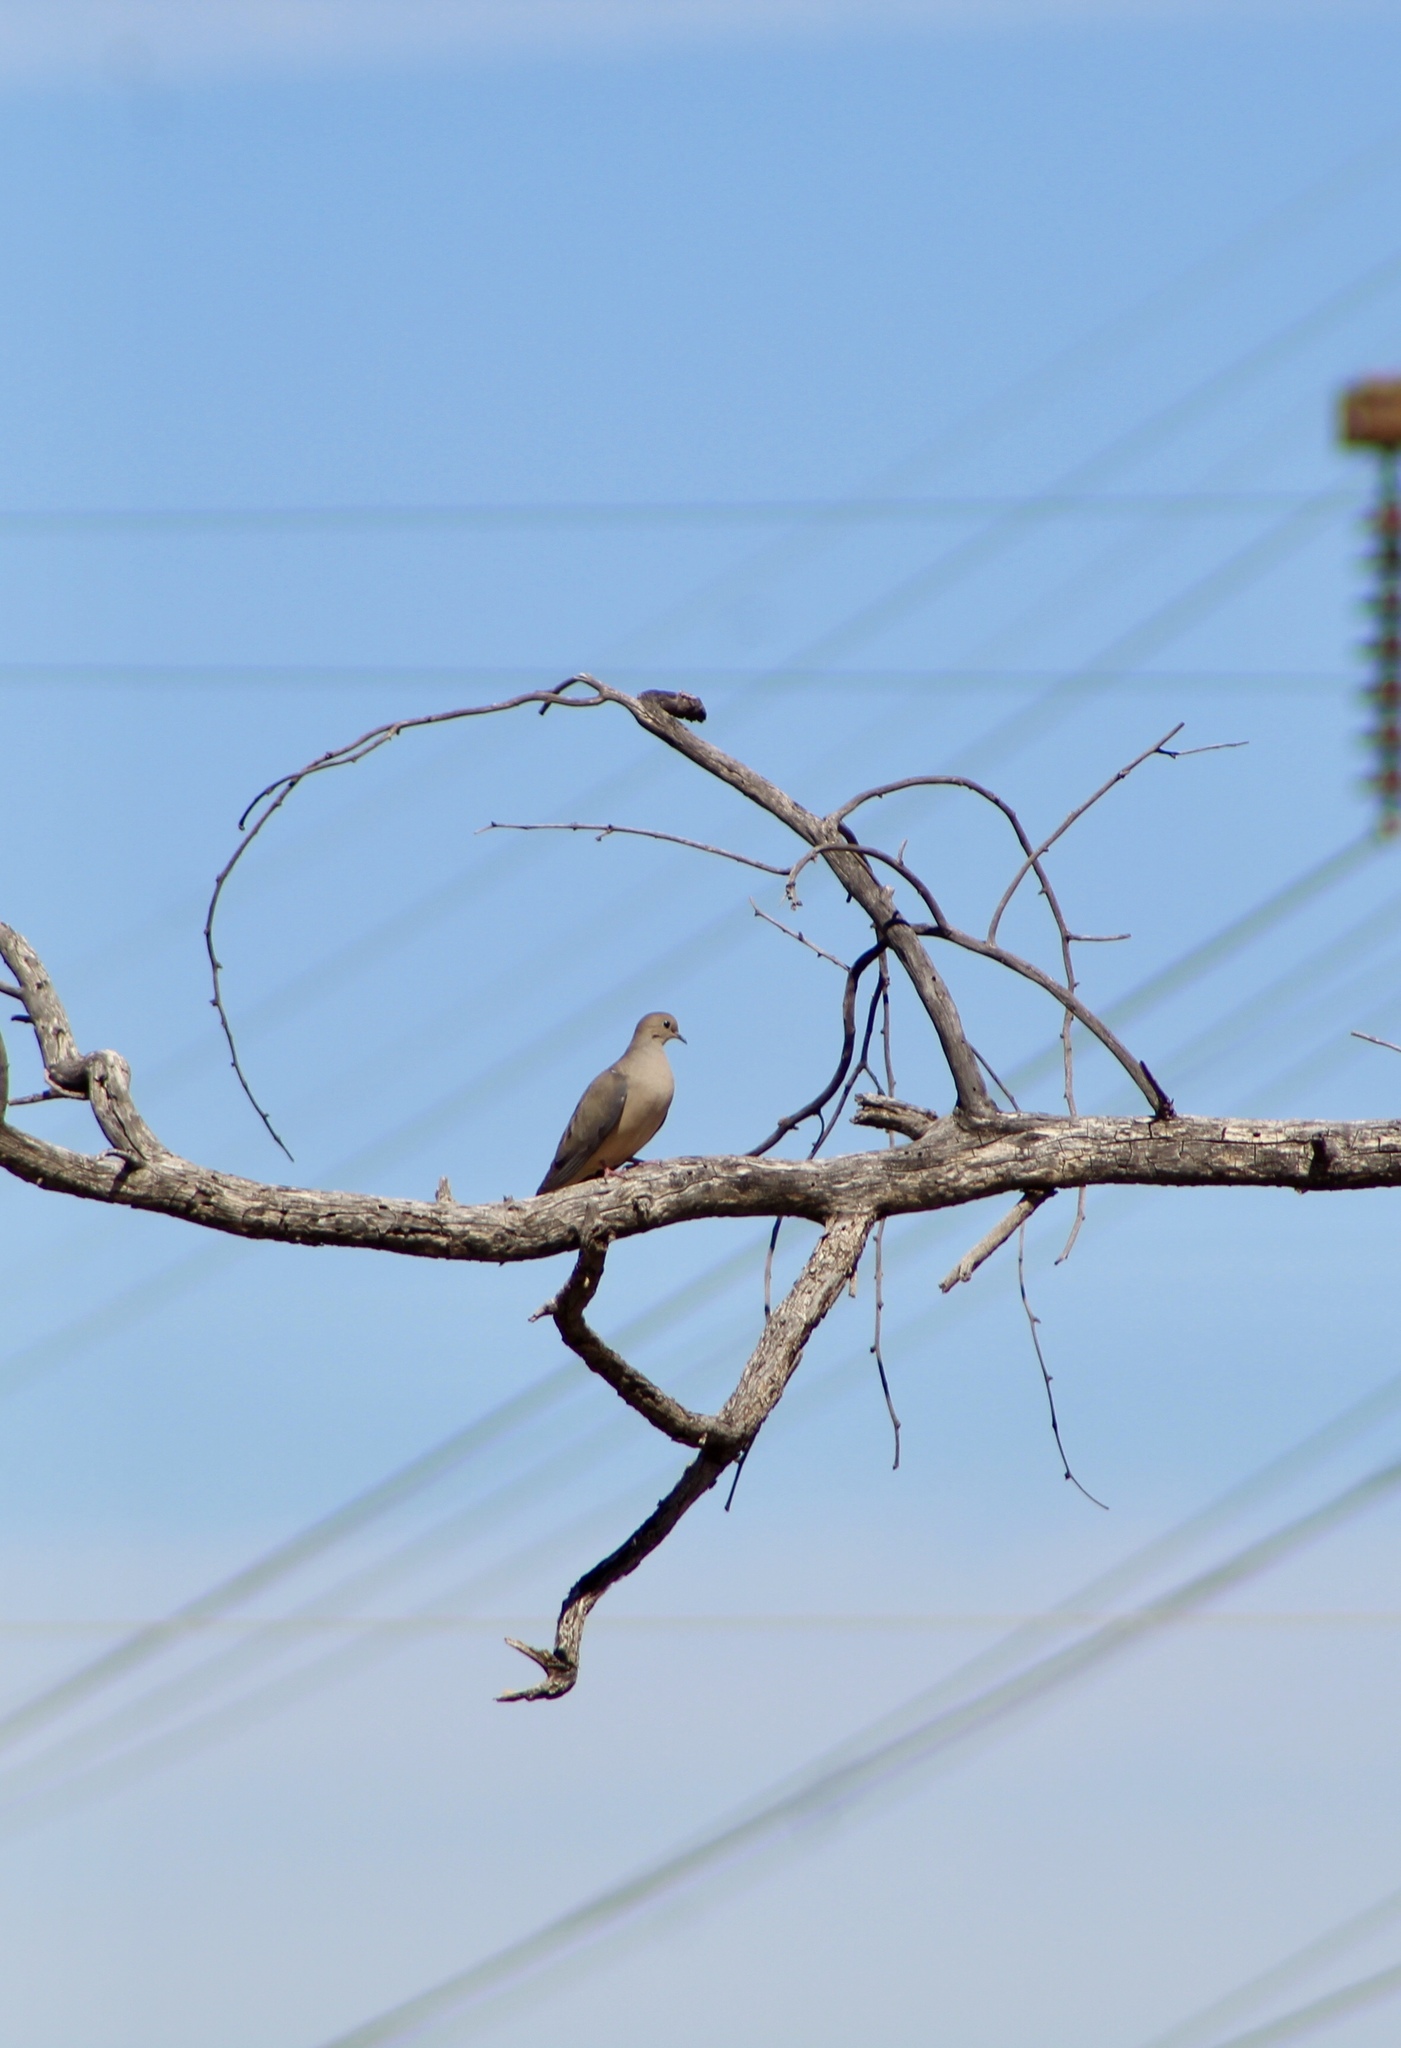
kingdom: Animalia
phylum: Chordata
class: Aves
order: Columbiformes
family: Columbidae
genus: Zenaida
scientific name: Zenaida macroura
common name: Mourning dove
